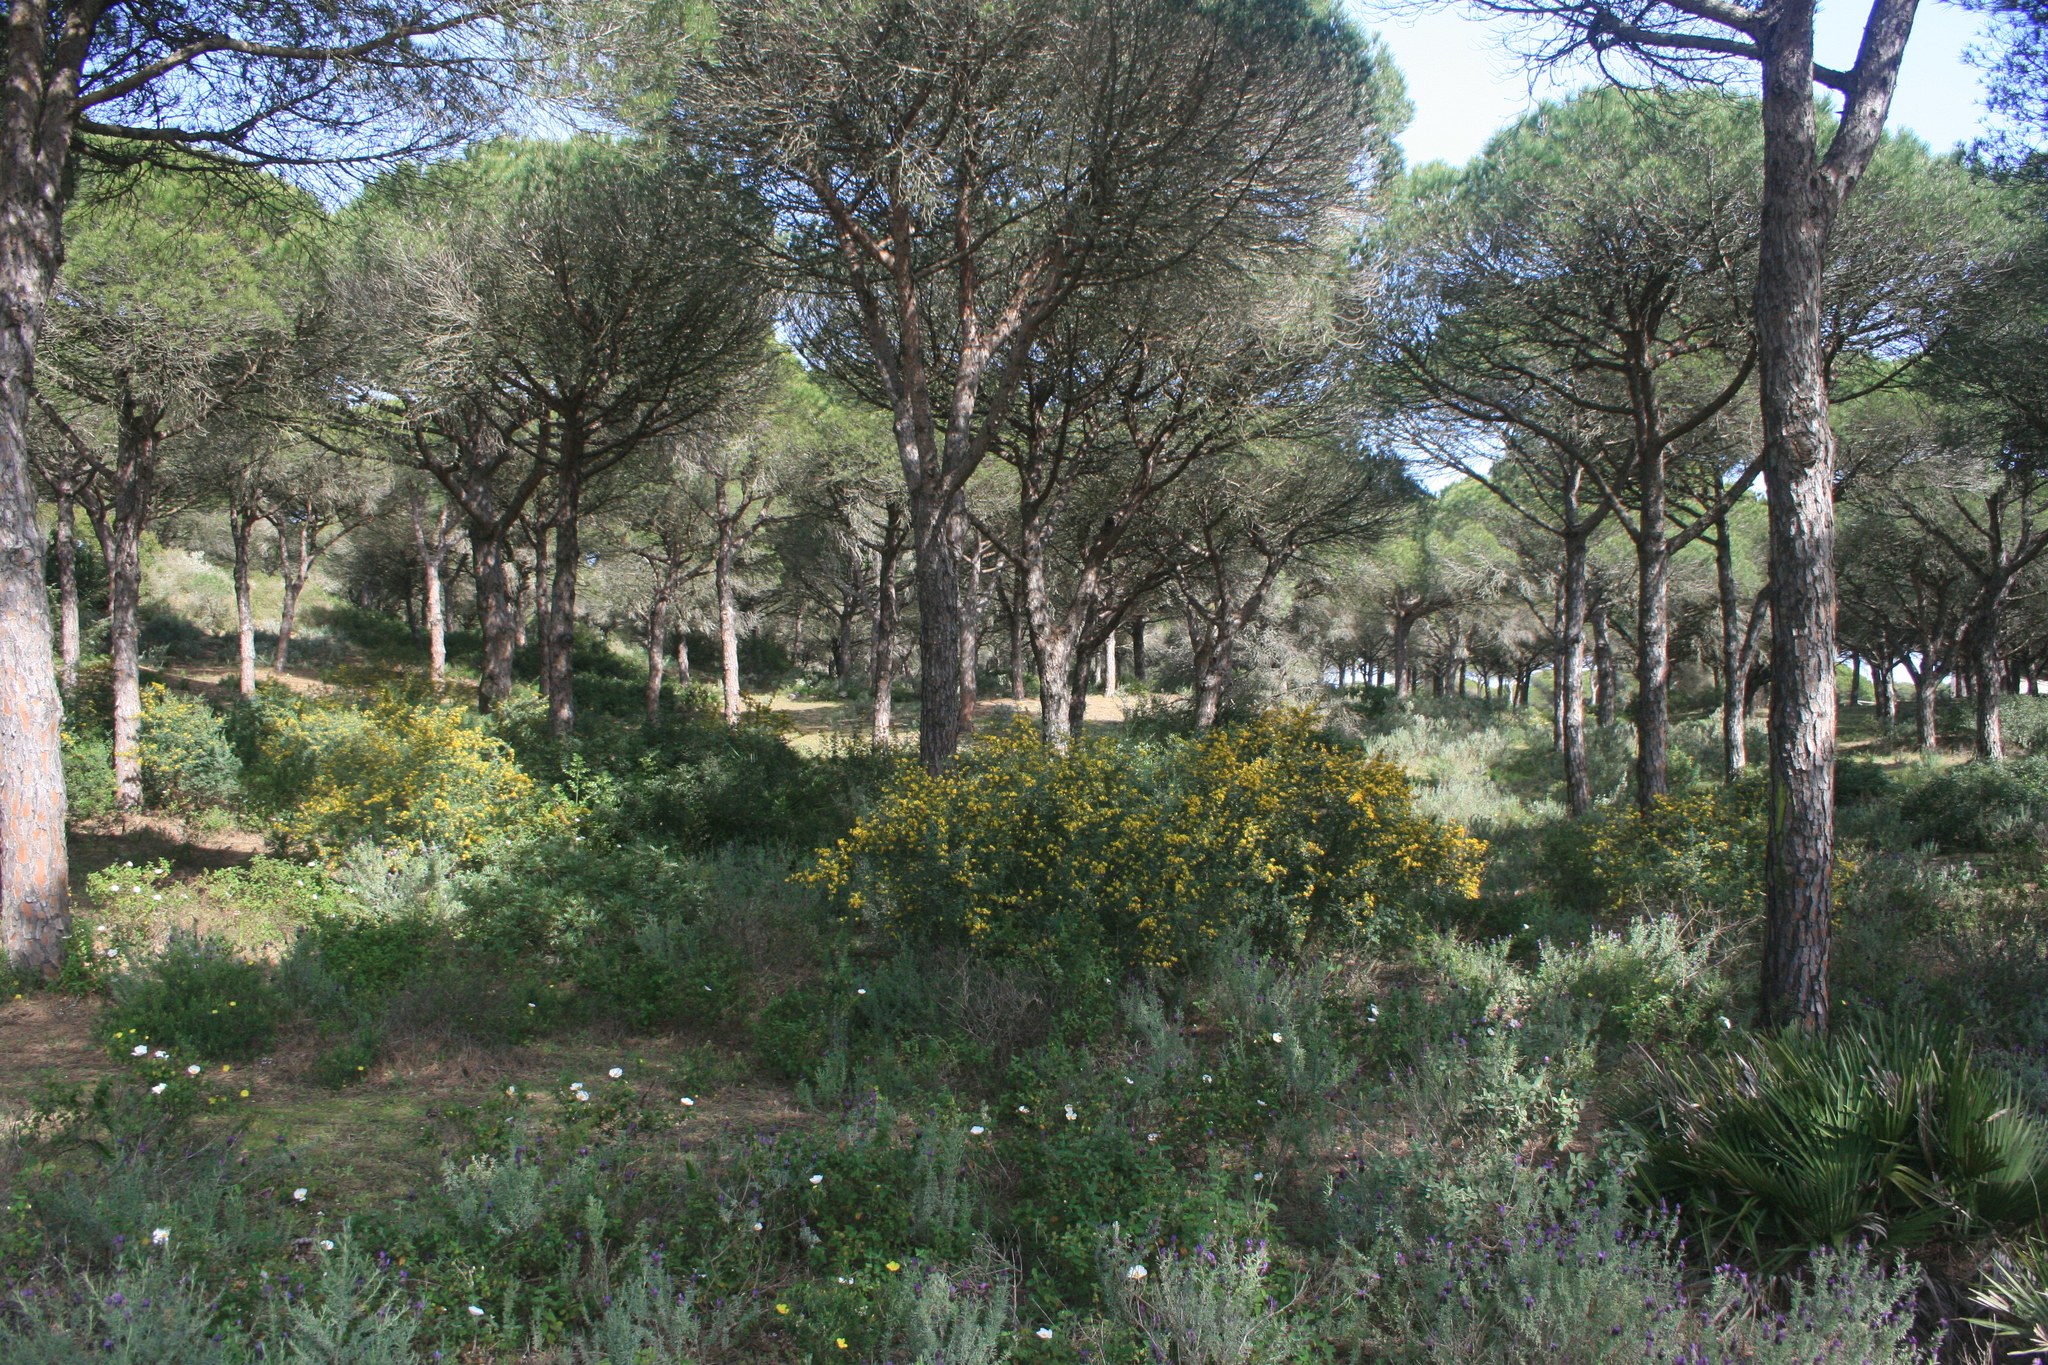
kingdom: Plantae
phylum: Tracheophyta
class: Magnoliopsida
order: Fabales
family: Fabaceae
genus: Calicotome
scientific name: Calicotome villosa
